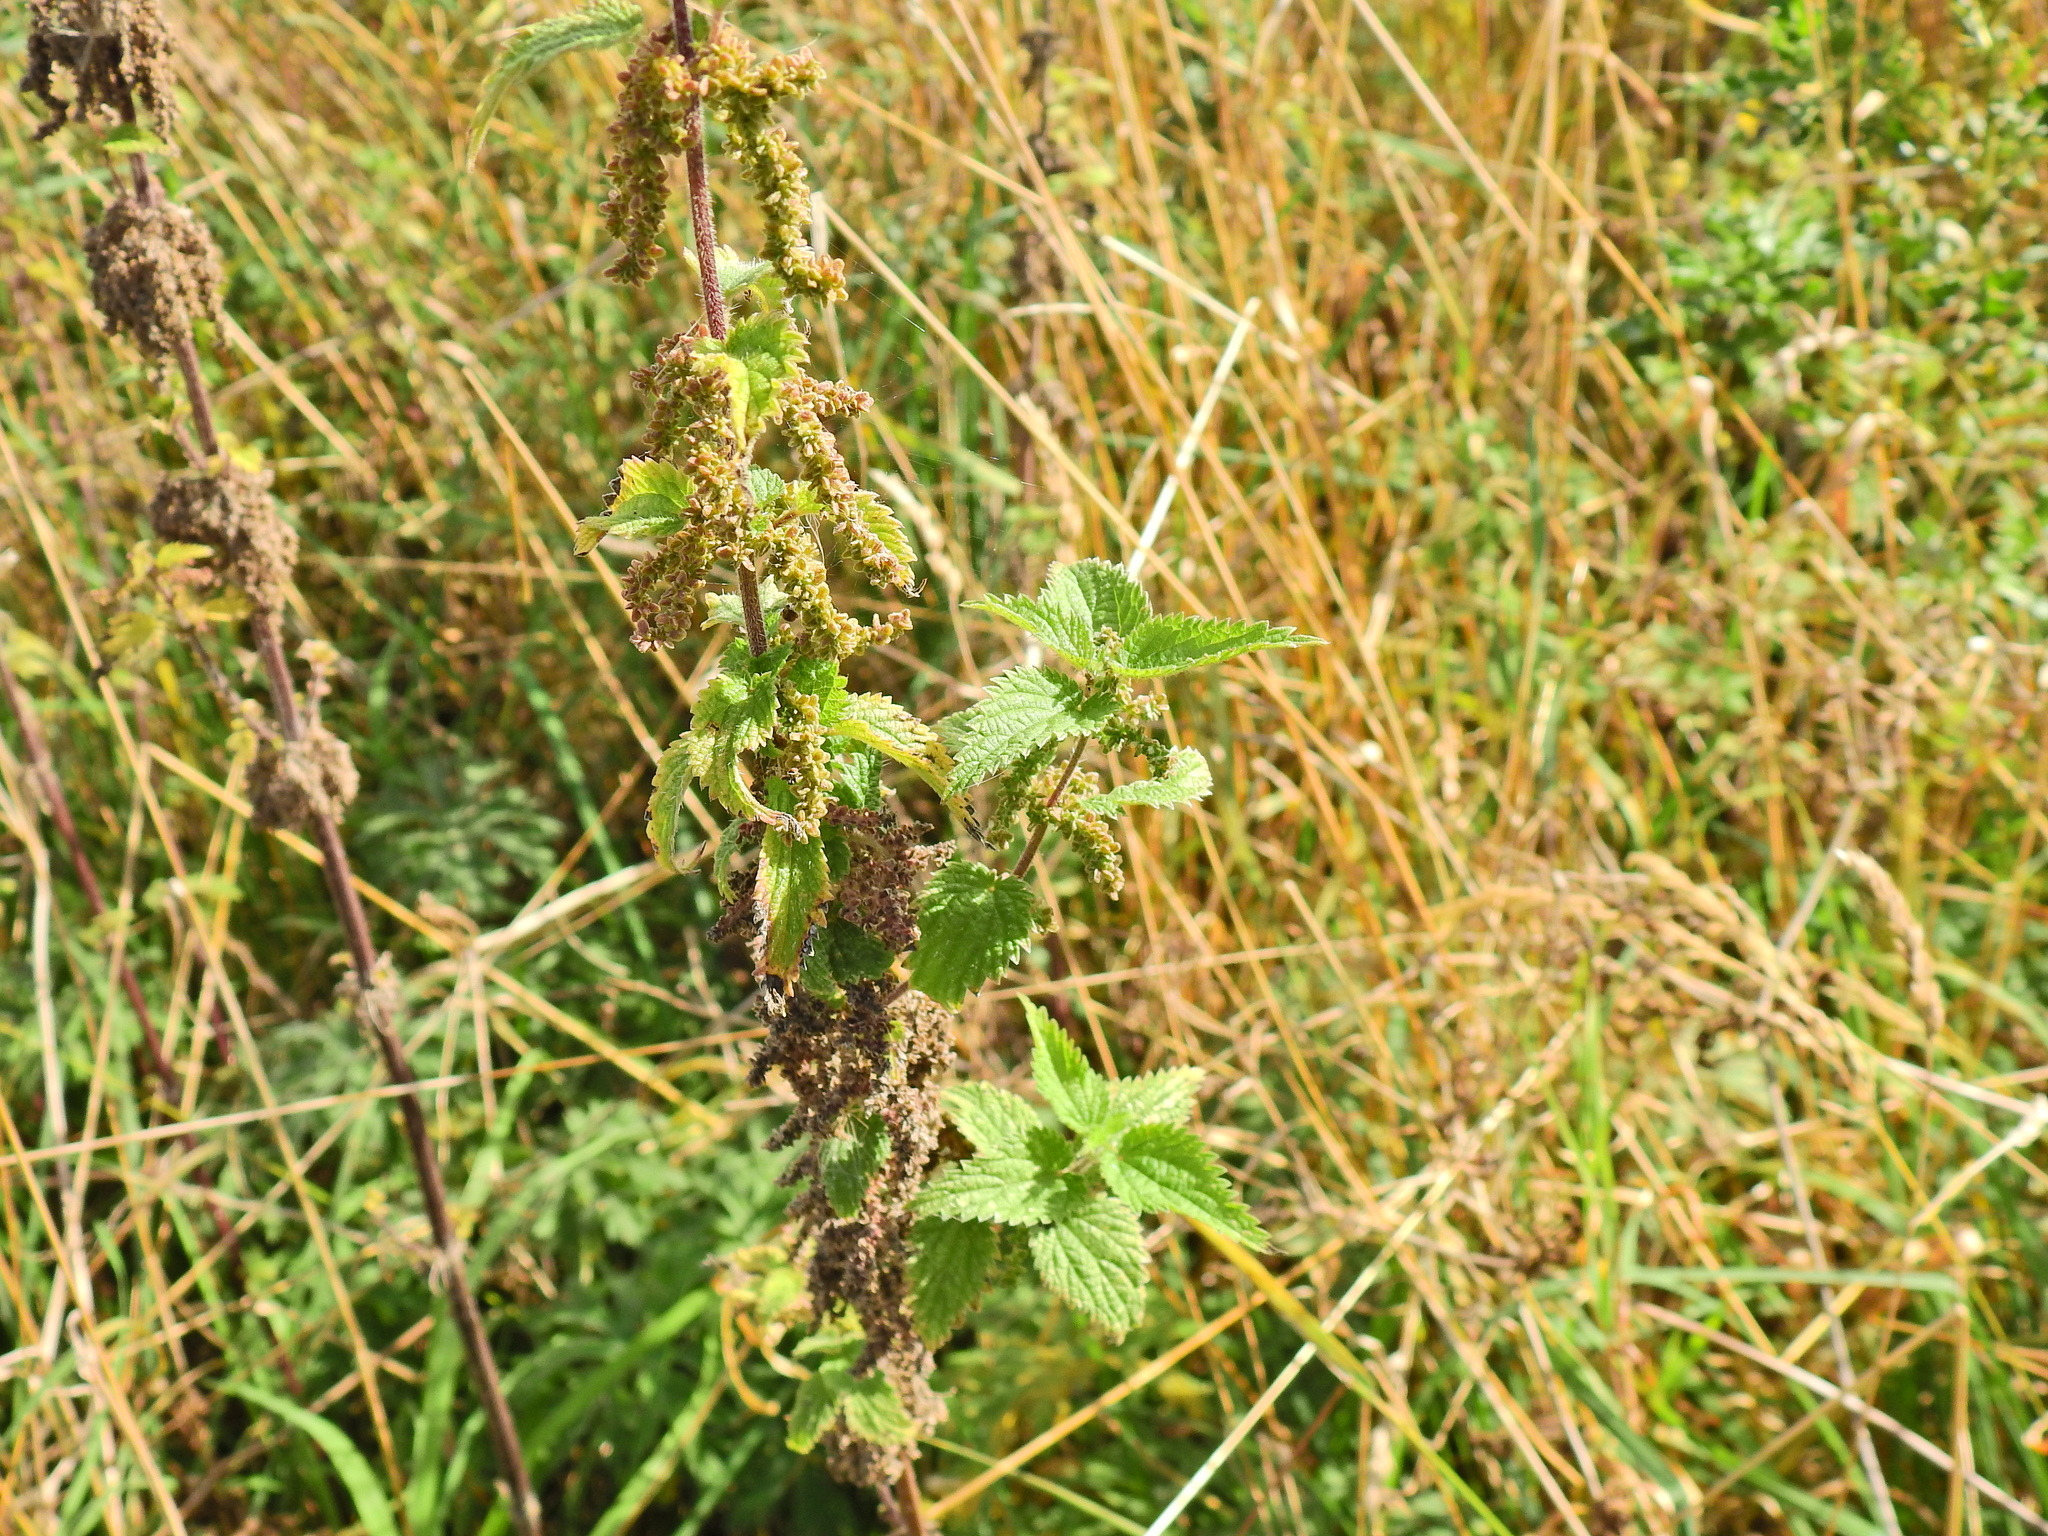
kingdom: Plantae
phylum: Tracheophyta
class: Magnoliopsida
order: Rosales
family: Urticaceae
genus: Urtica
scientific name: Urtica dioica
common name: Common nettle
